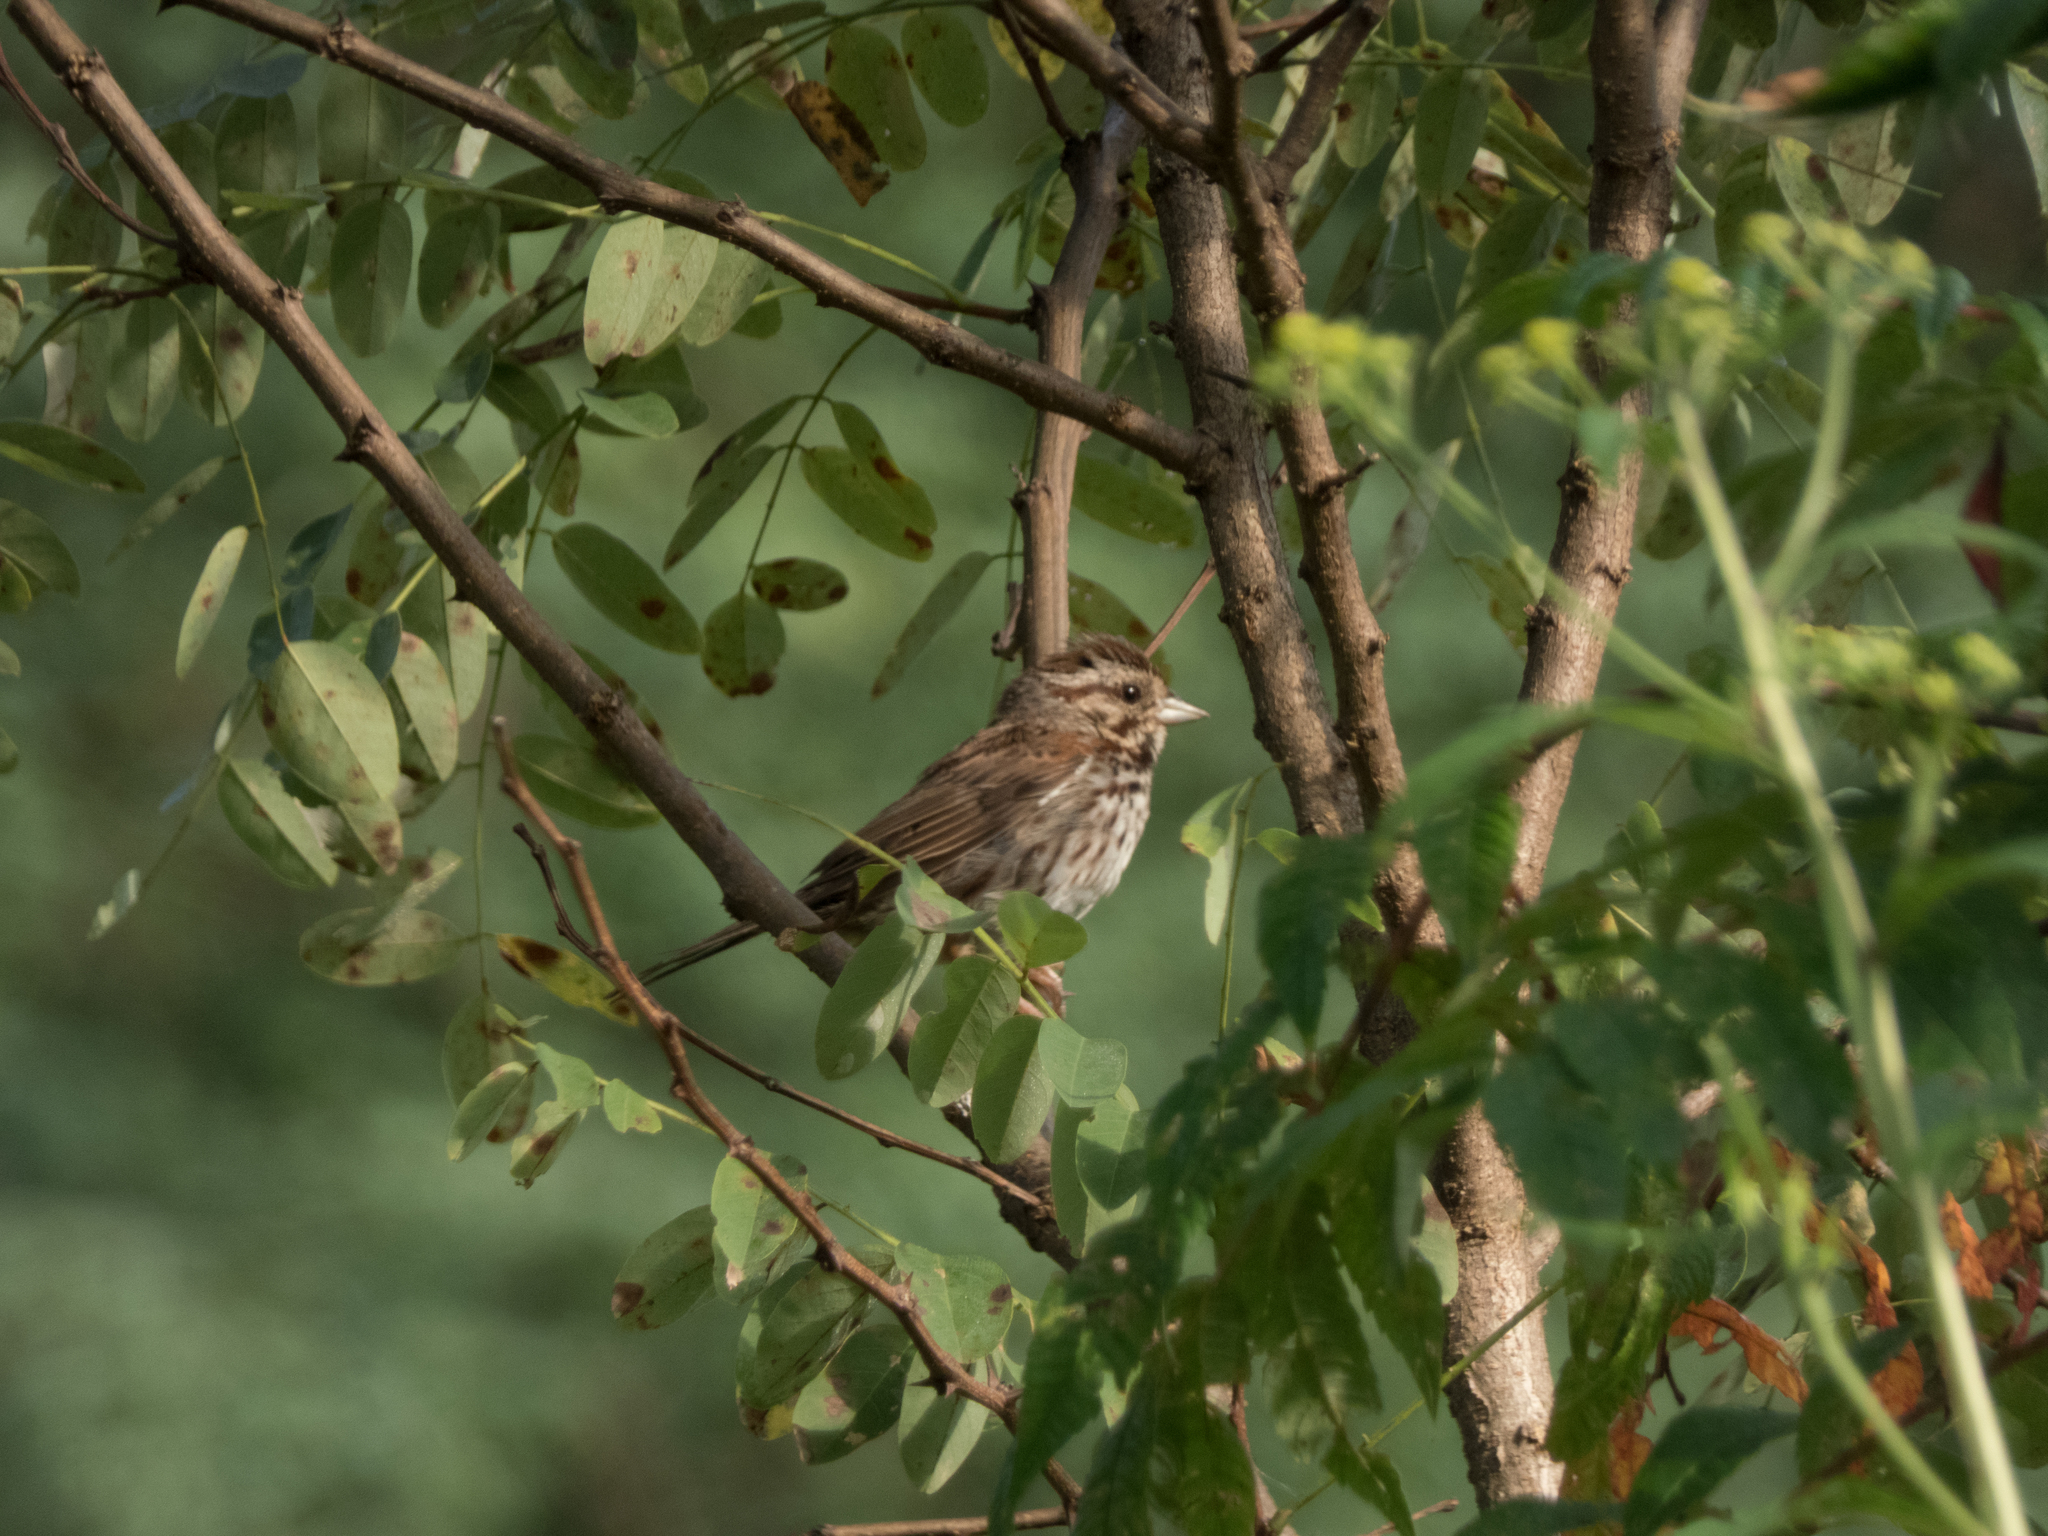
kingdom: Animalia
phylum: Chordata
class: Aves
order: Passeriformes
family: Passerellidae
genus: Melospiza
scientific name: Melospiza melodia
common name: Song sparrow
